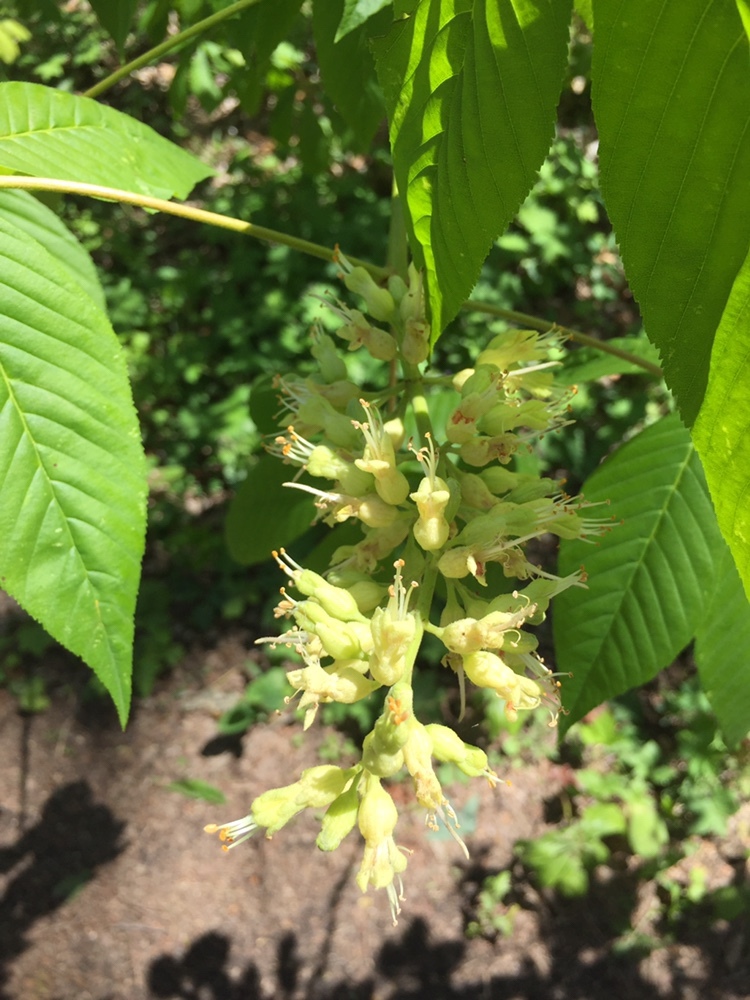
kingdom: Plantae
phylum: Tracheophyta
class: Magnoliopsida
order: Sapindales
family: Sapindaceae
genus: Aesculus
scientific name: Aesculus glabra
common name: Ohio buckeye
